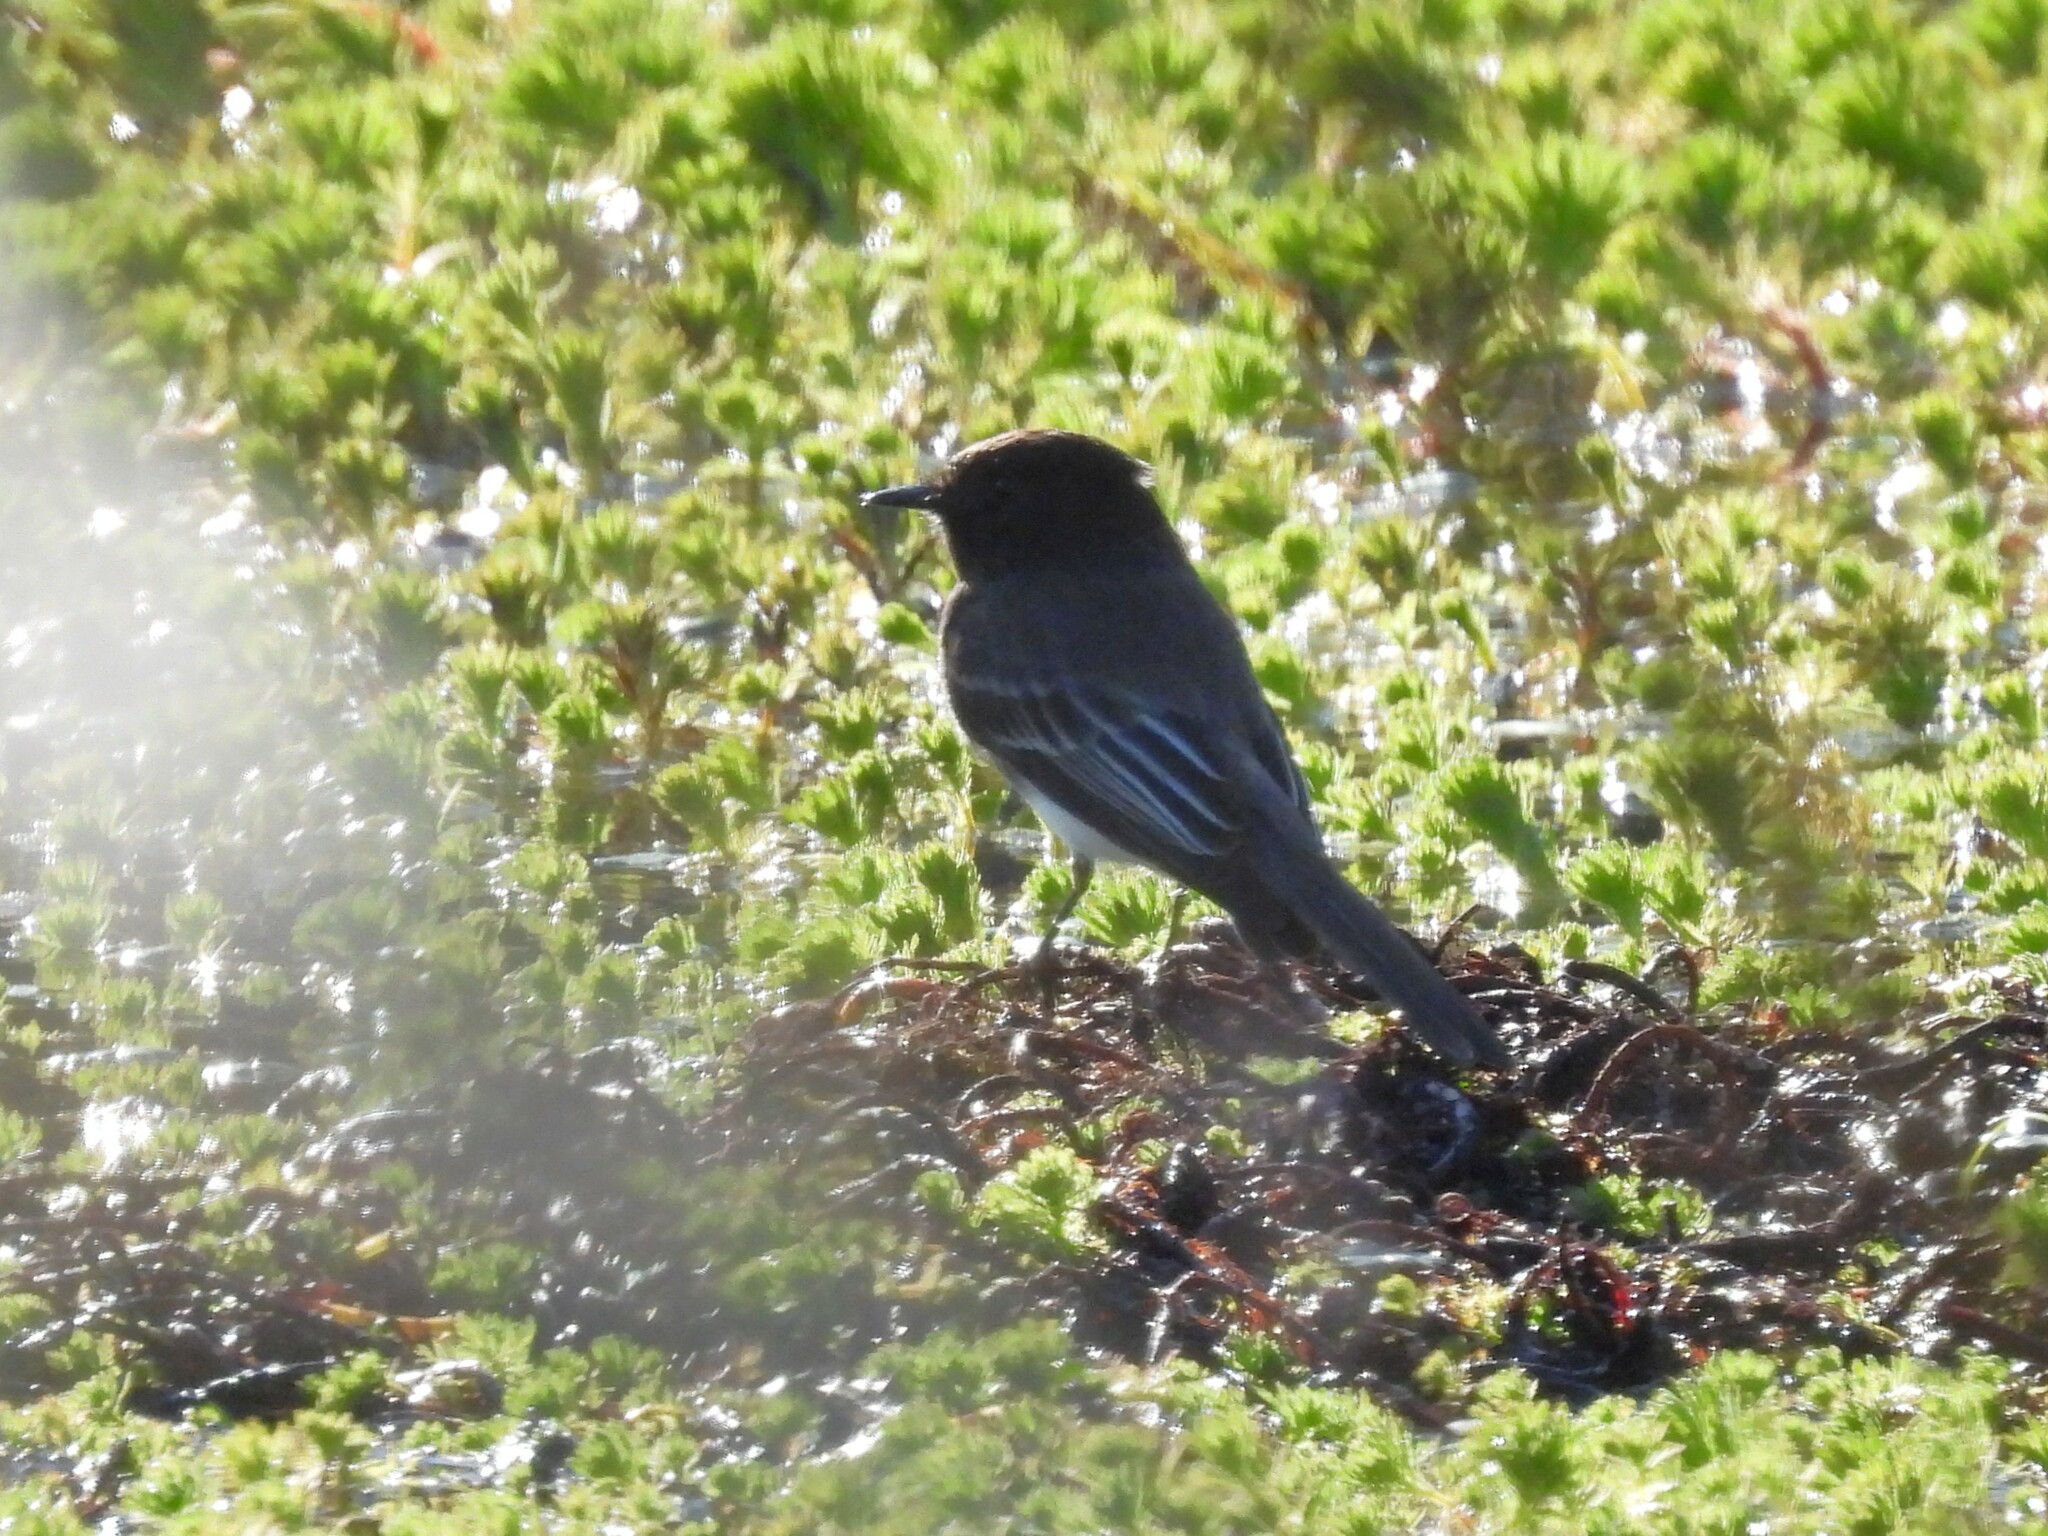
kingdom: Animalia
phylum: Chordata
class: Aves
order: Passeriformes
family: Tyrannidae
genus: Sayornis
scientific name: Sayornis nigricans
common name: Black phoebe
